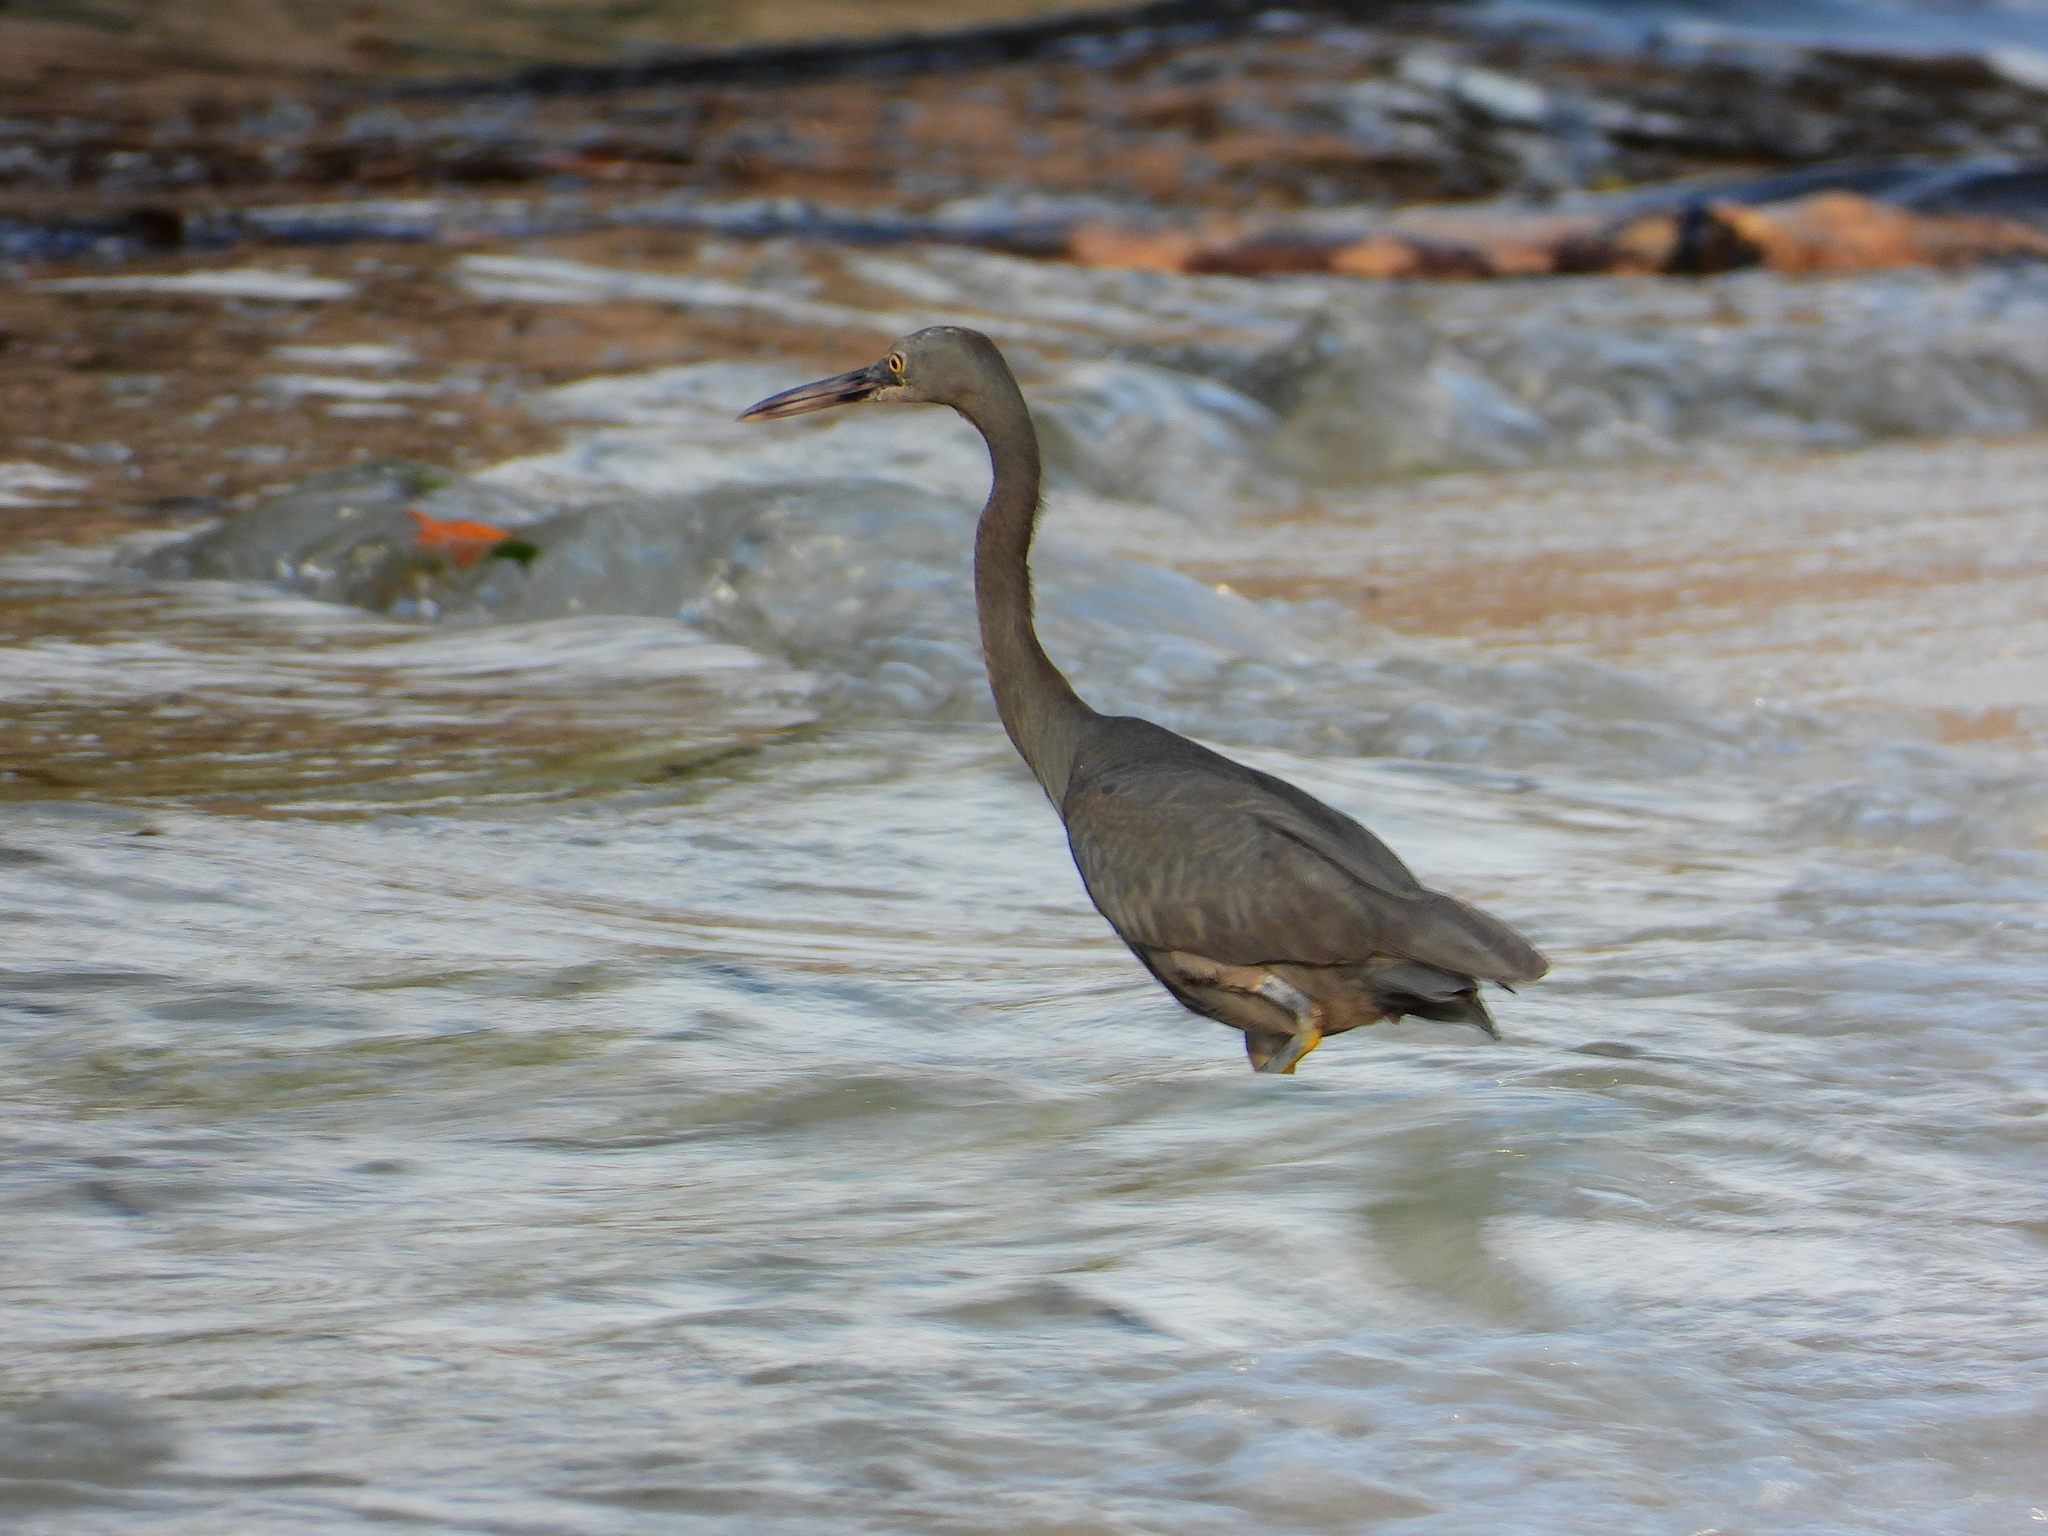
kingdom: Animalia
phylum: Chordata
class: Aves
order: Pelecaniformes
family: Ardeidae
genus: Egretta
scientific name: Egretta sacra
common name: Pacific reef heron
